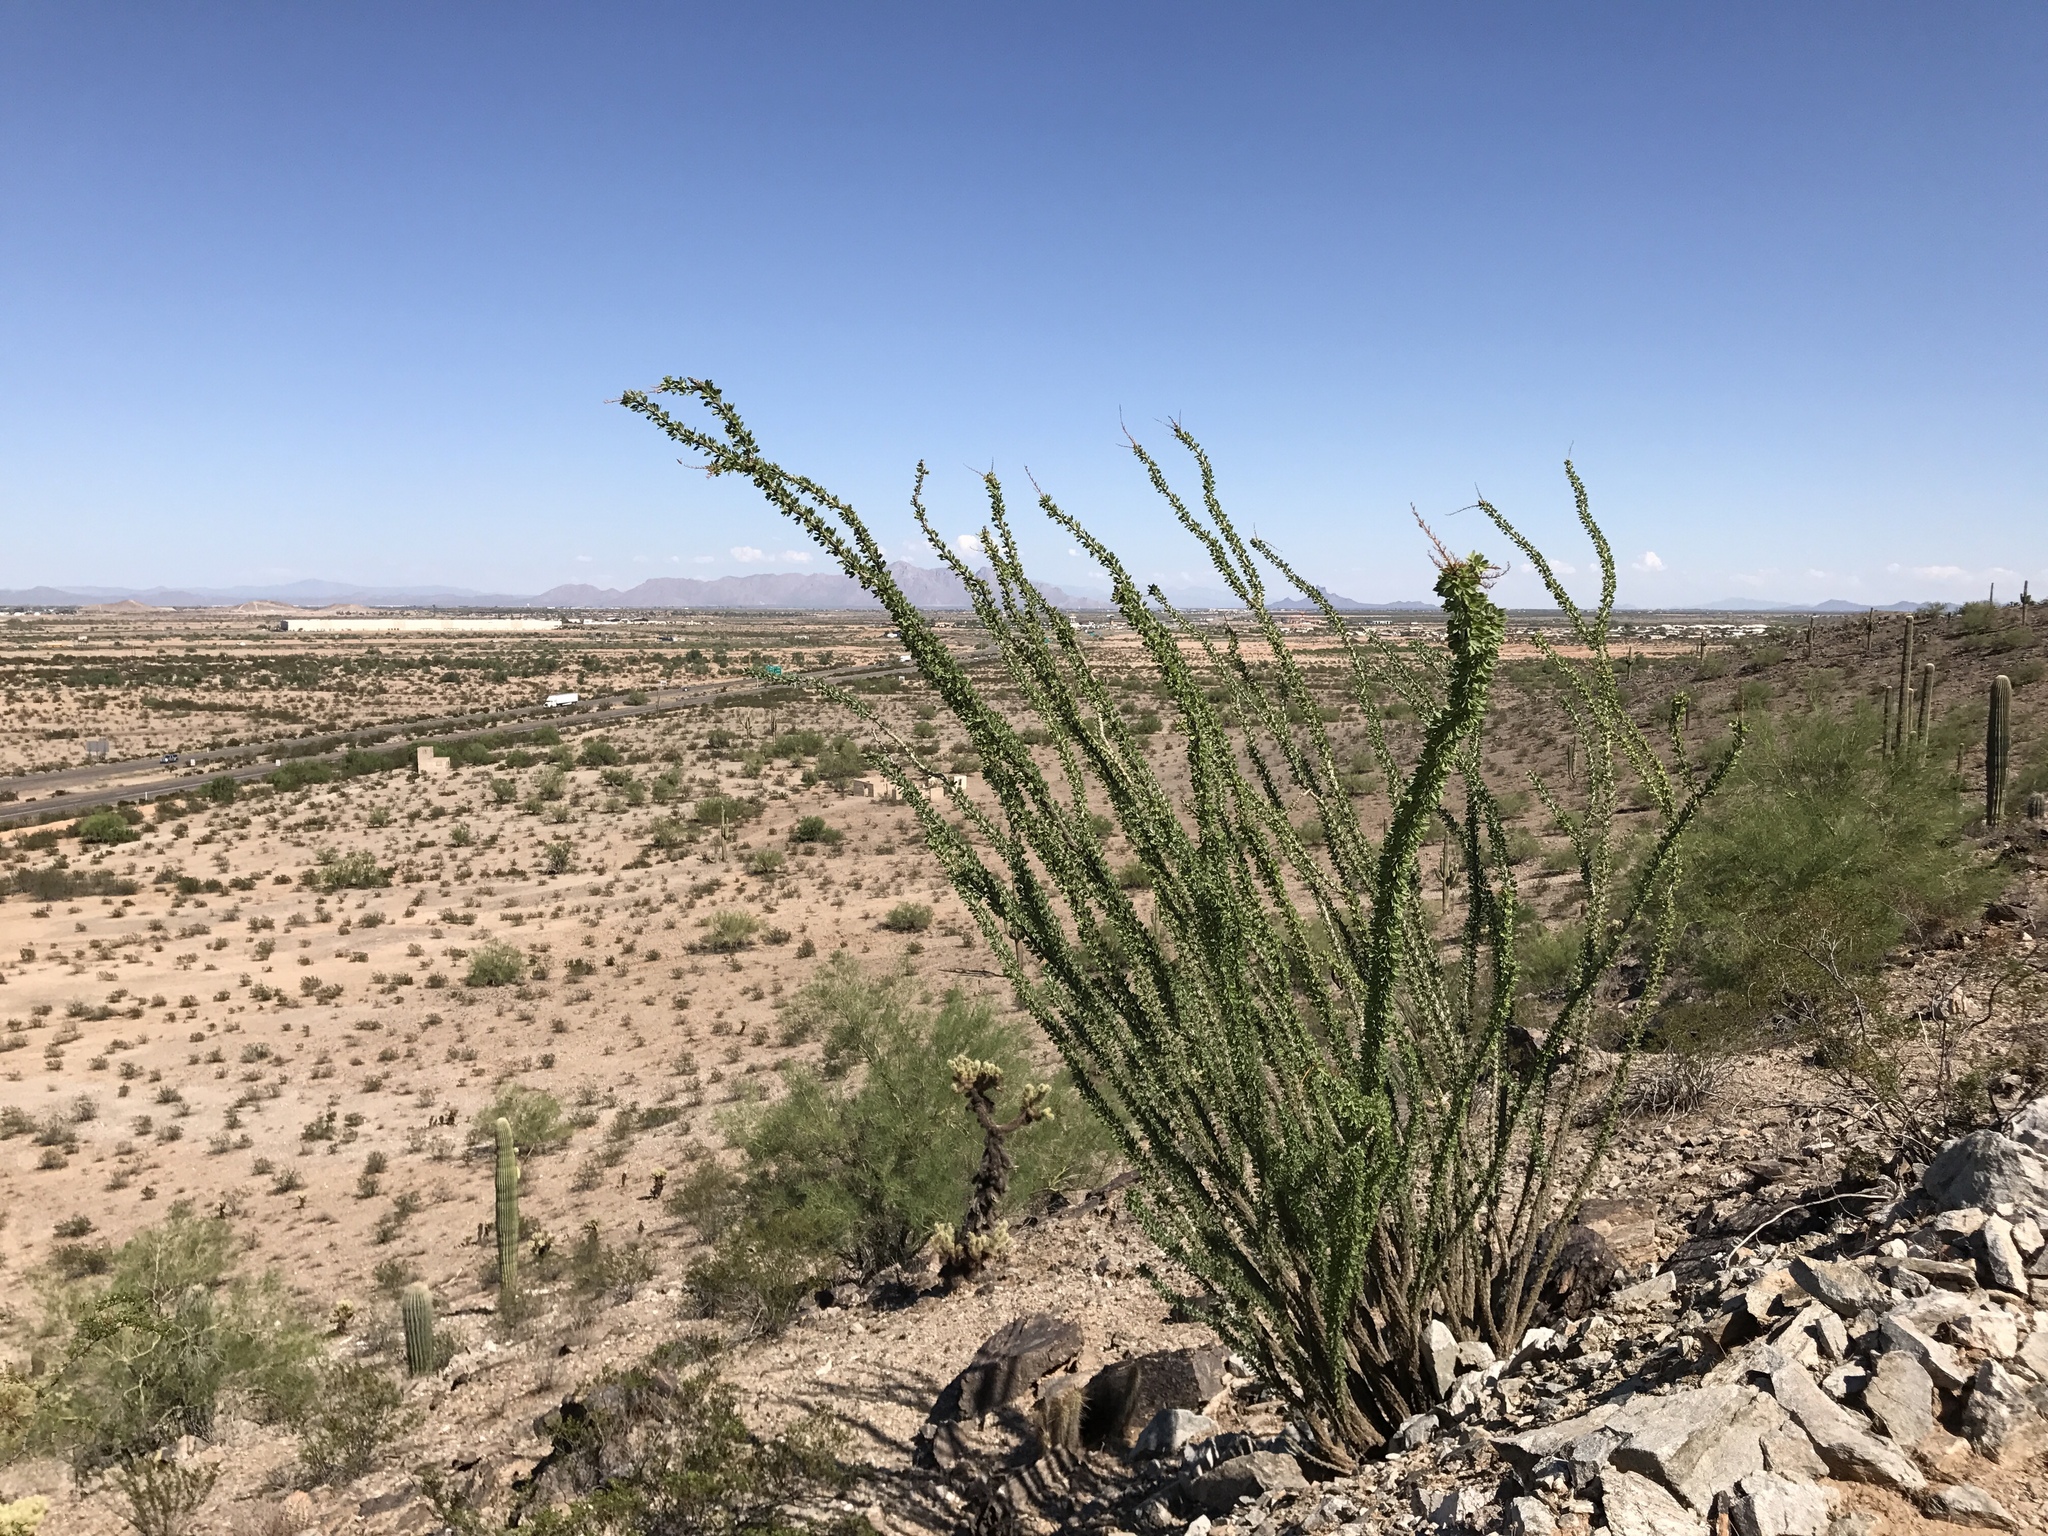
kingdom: Plantae
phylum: Tracheophyta
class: Magnoliopsida
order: Ericales
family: Fouquieriaceae
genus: Fouquieria
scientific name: Fouquieria splendens
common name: Vine-cactus
